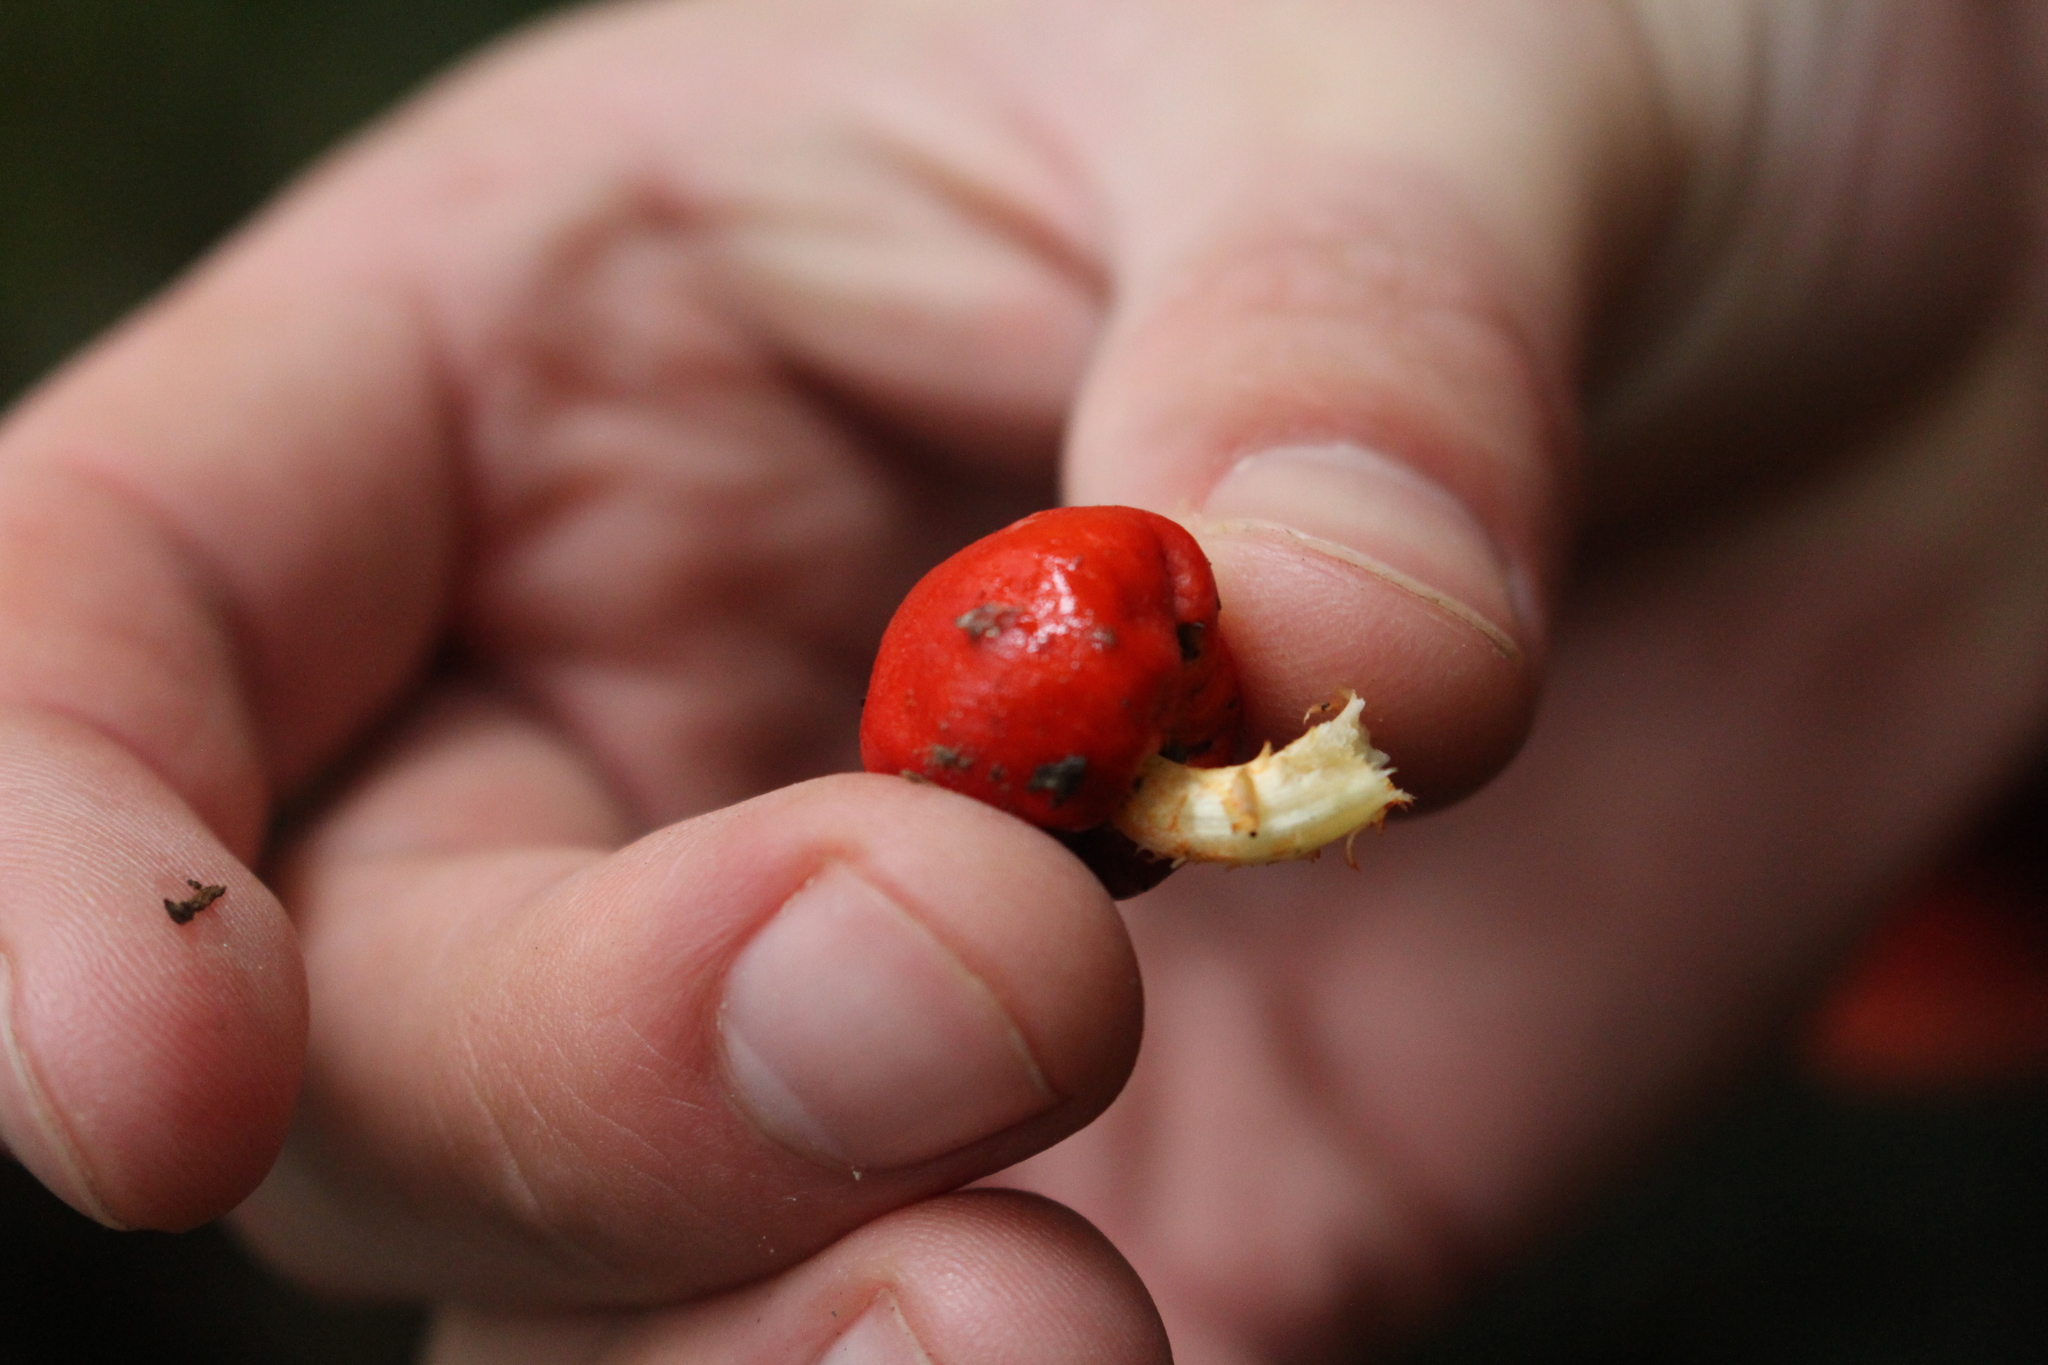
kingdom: Fungi
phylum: Basidiomycota
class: Agaricomycetes
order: Agaricales
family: Strophariaceae
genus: Leratiomyces
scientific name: Leratiomyces erythrocephalus
